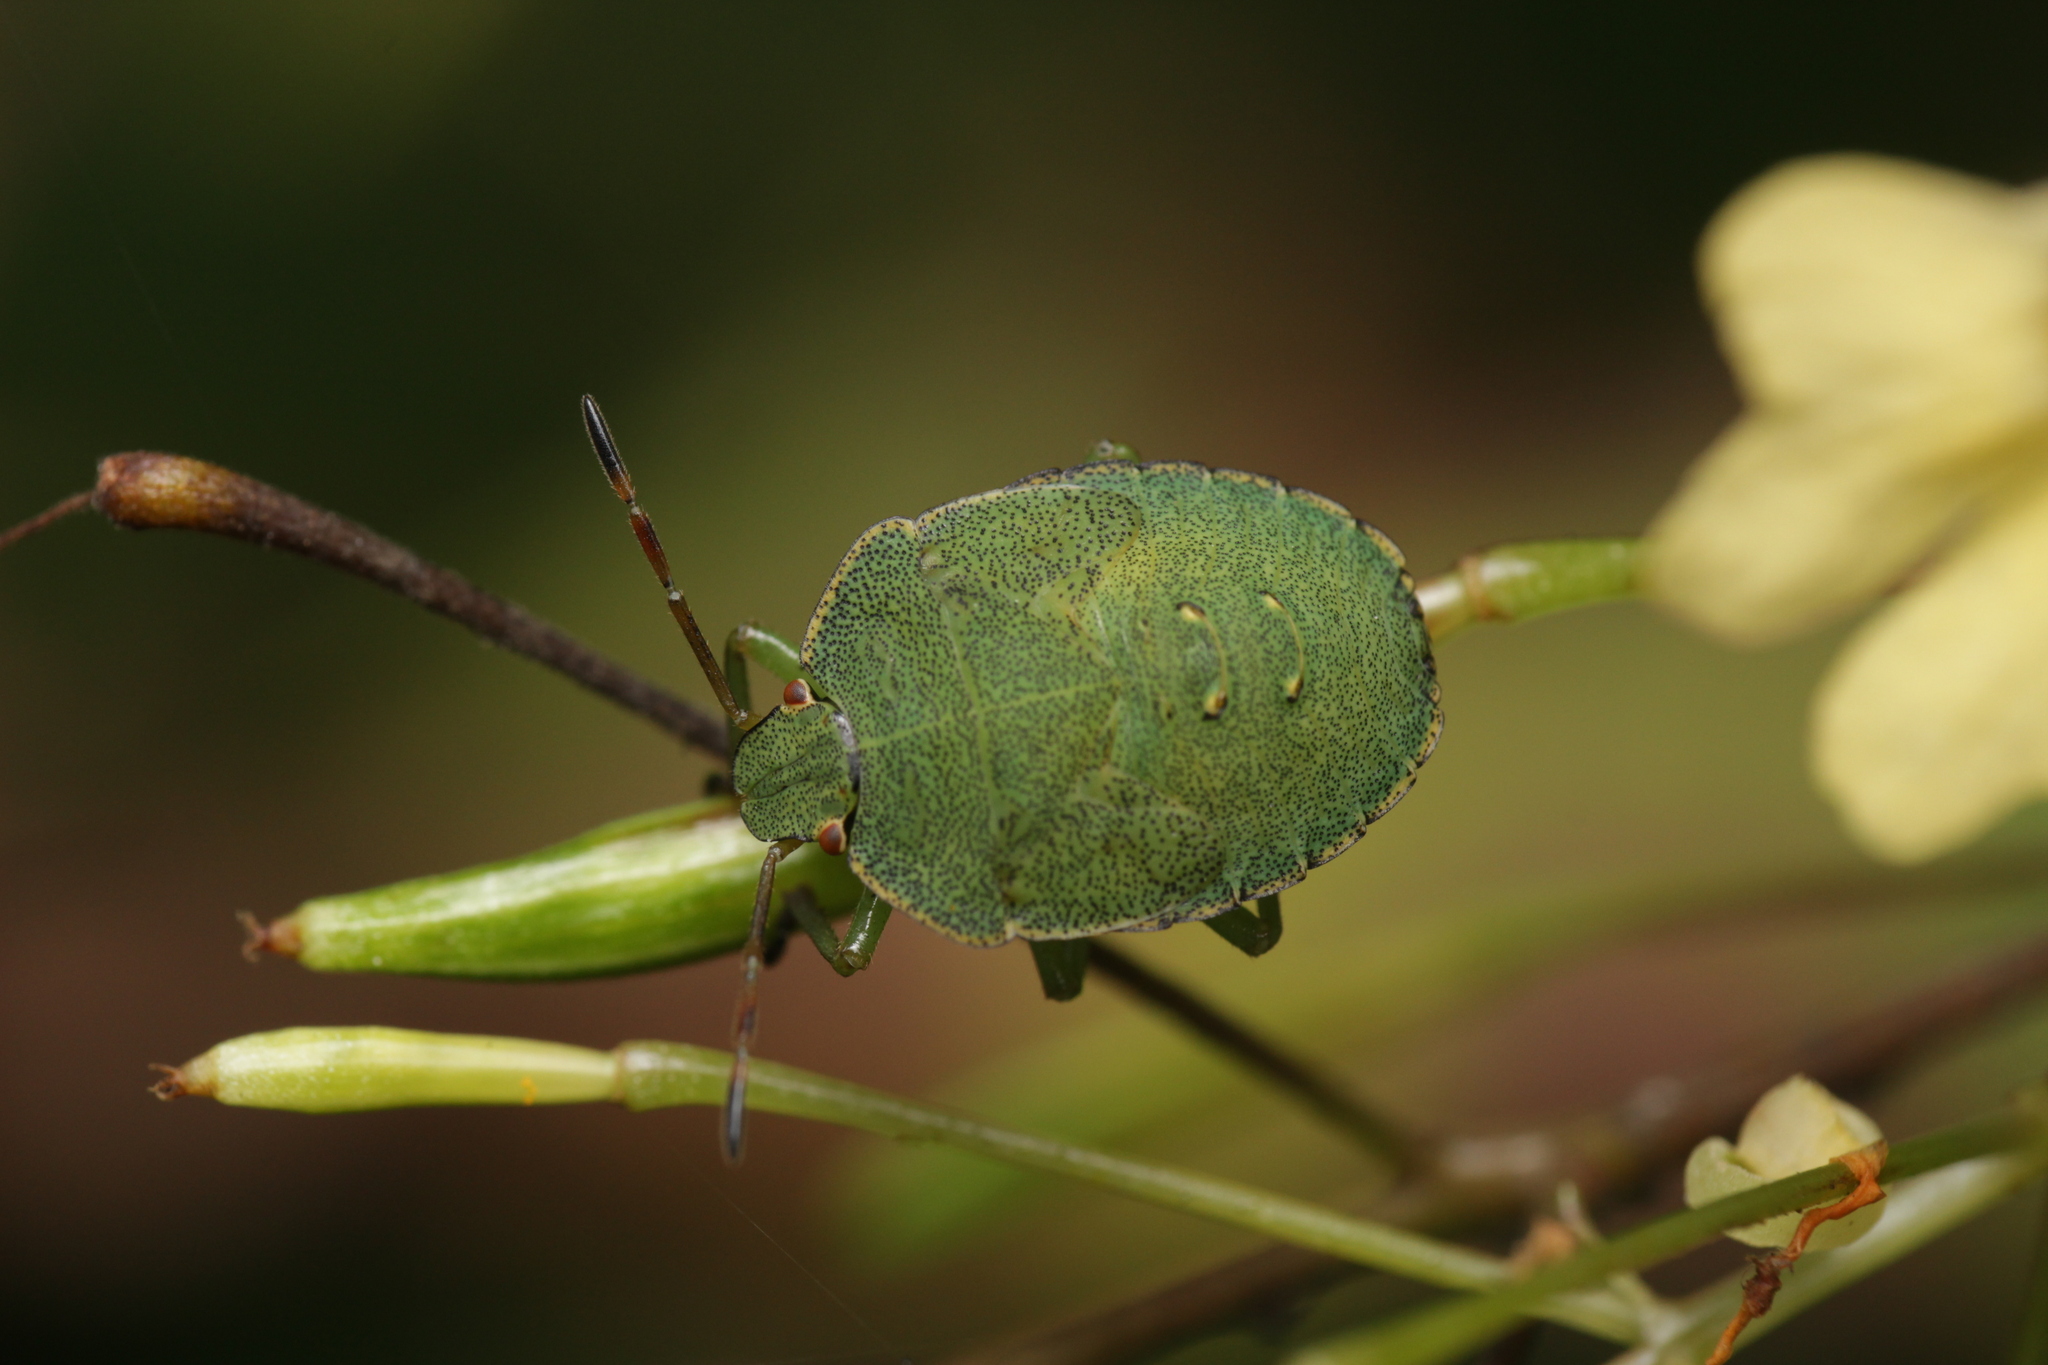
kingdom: Animalia
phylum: Arthropoda
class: Insecta
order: Hemiptera
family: Pentatomidae
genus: Palomena
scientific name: Palomena prasina
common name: Green shieldbug
